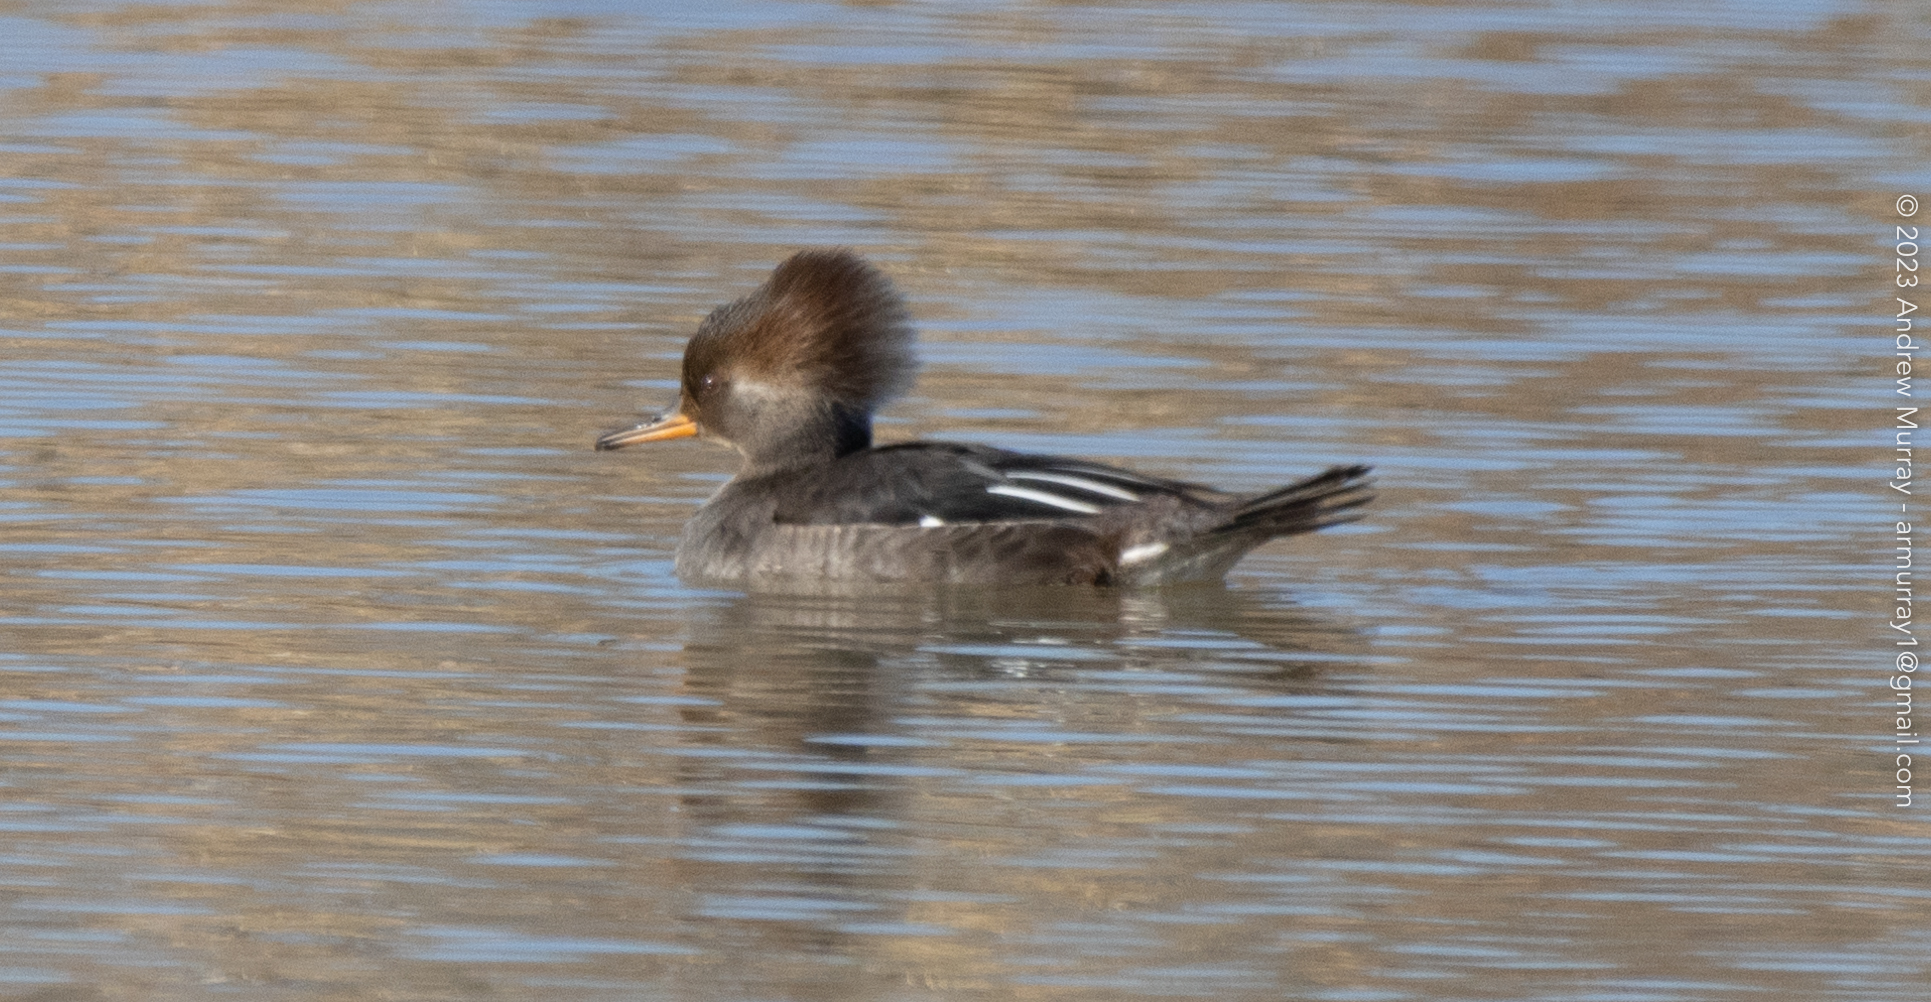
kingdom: Animalia
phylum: Chordata
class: Aves
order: Anseriformes
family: Anatidae
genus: Lophodytes
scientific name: Lophodytes cucullatus
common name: Hooded merganser
